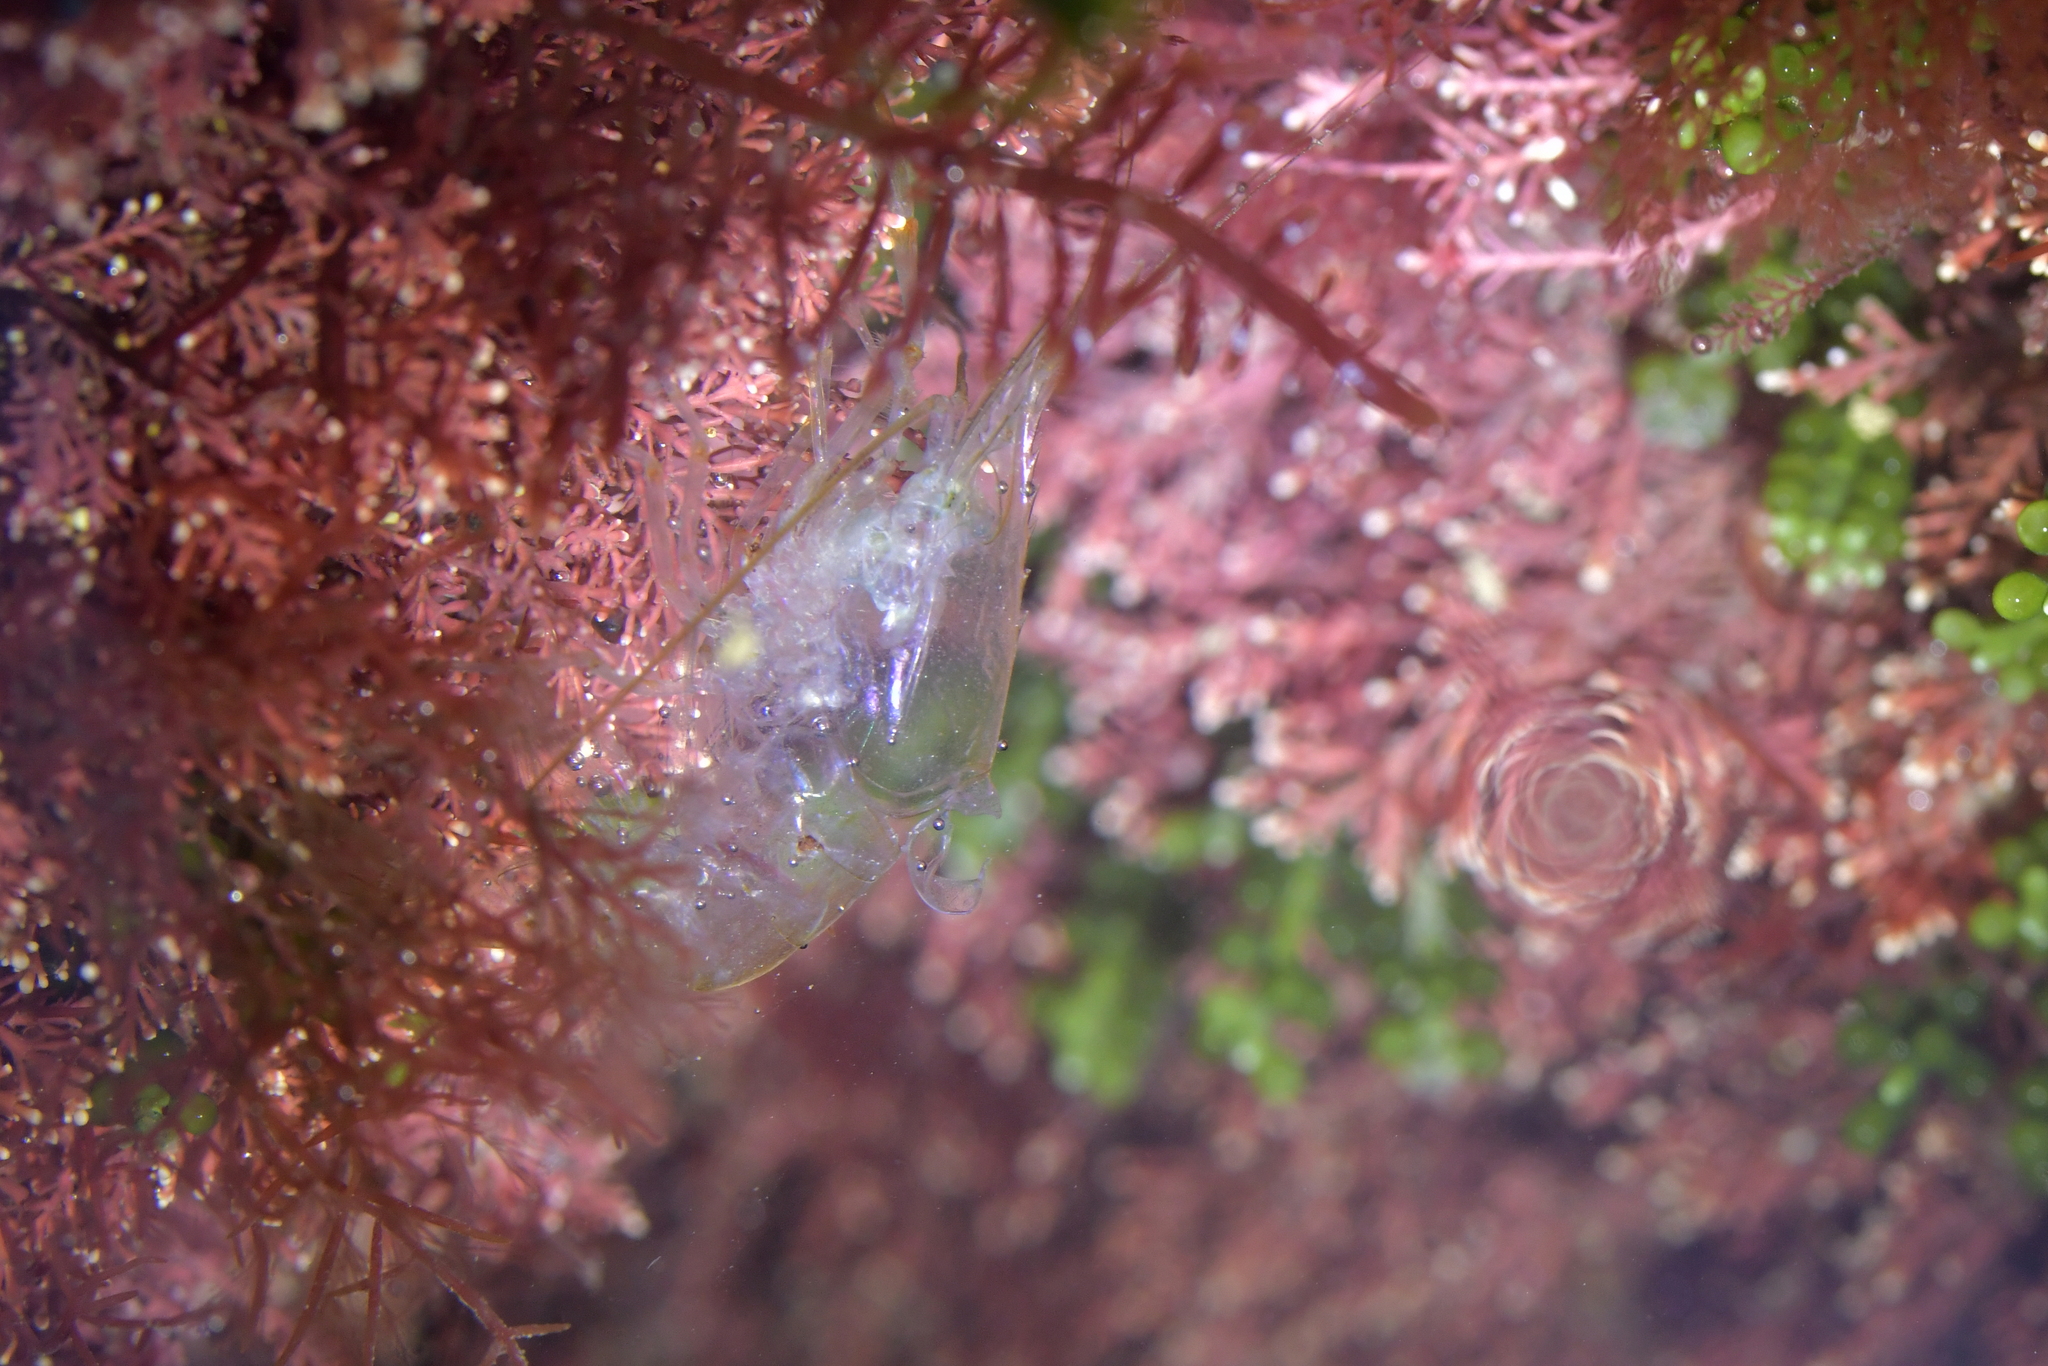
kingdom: Animalia
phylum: Arthropoda
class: Malacostraca
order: Decapoda
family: Palaemonidae
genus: Palaemon
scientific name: Palaemon affinis
